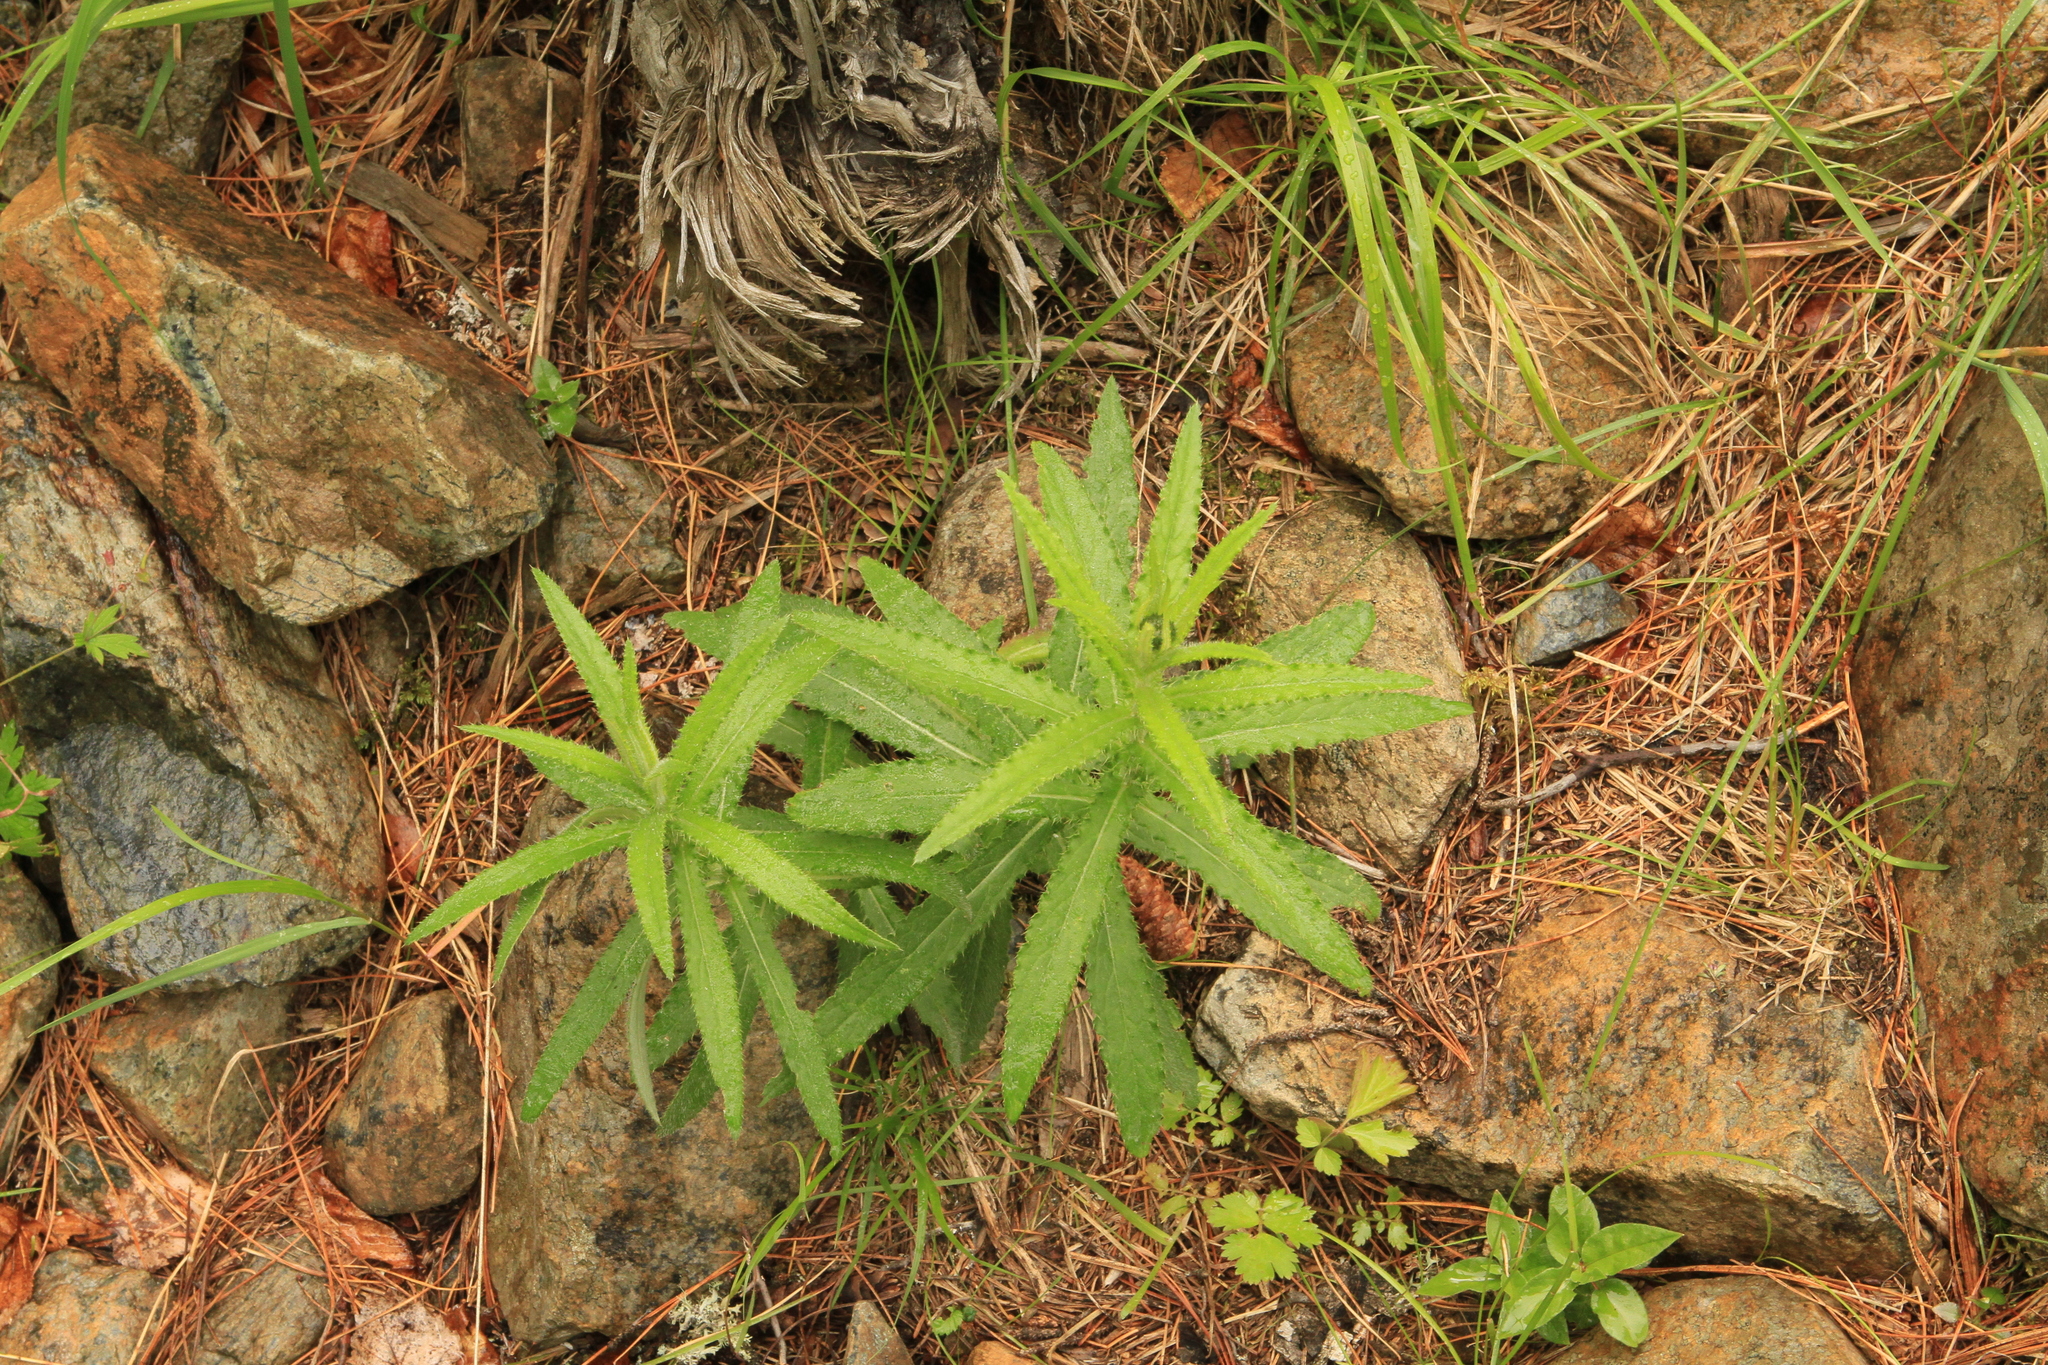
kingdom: Plantae
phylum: Tracheophyta
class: Magnoliopsida
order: Asterales
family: Asteraceae
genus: Cirsium
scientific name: Cirsium serratuloides
